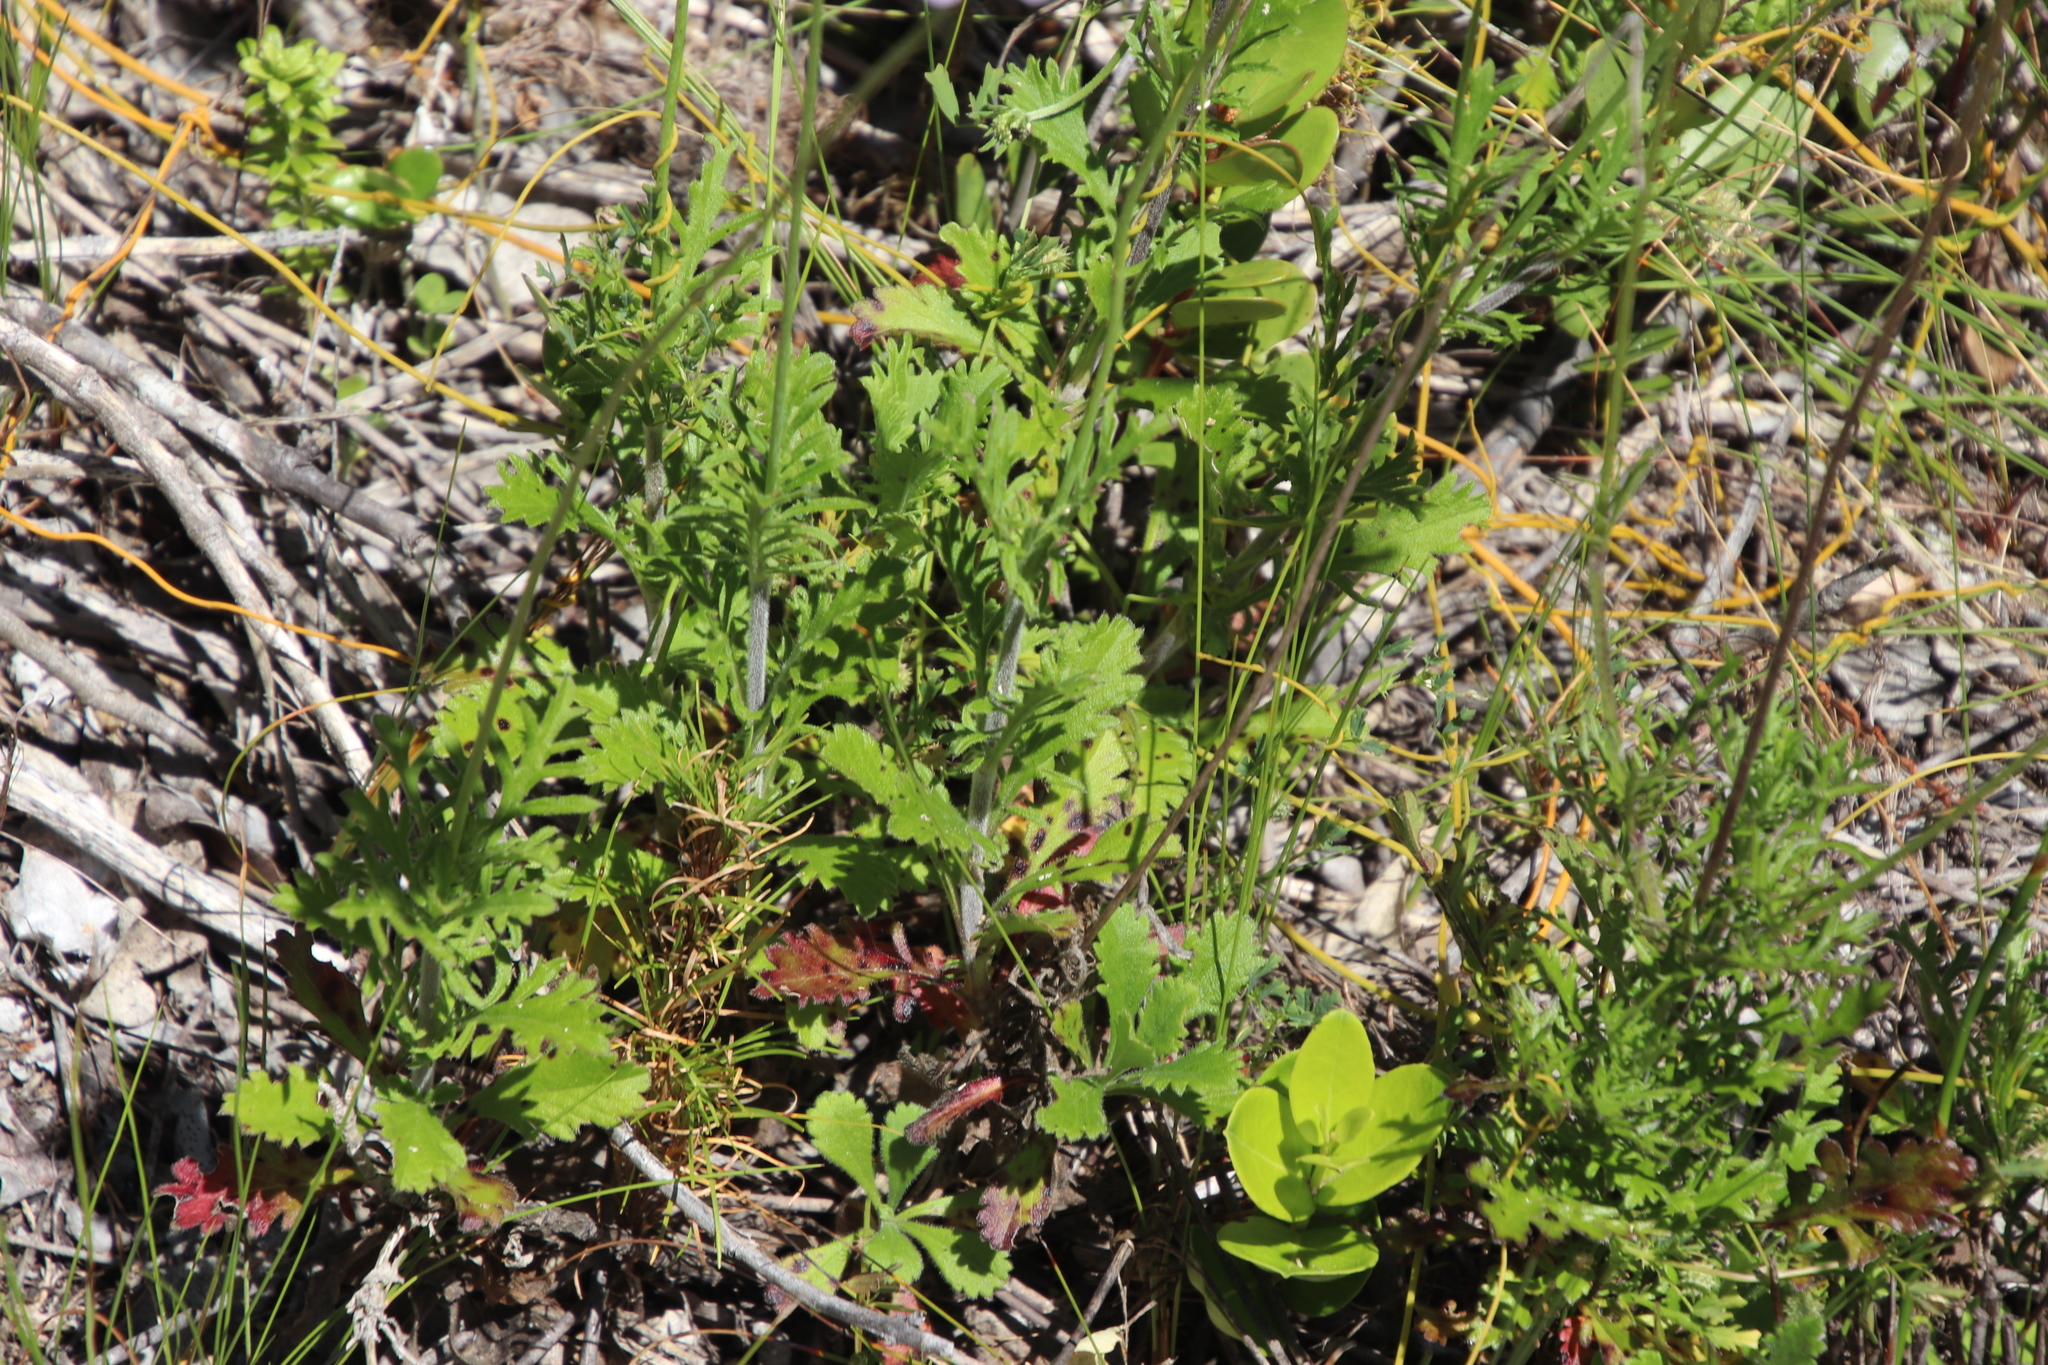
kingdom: Plantae
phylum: Tracheophyta
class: Magnoliopsida
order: Dipsacales
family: Caprifoliaceae
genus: Scabiosa
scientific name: Scabiosa columbaria
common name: Small scabious
